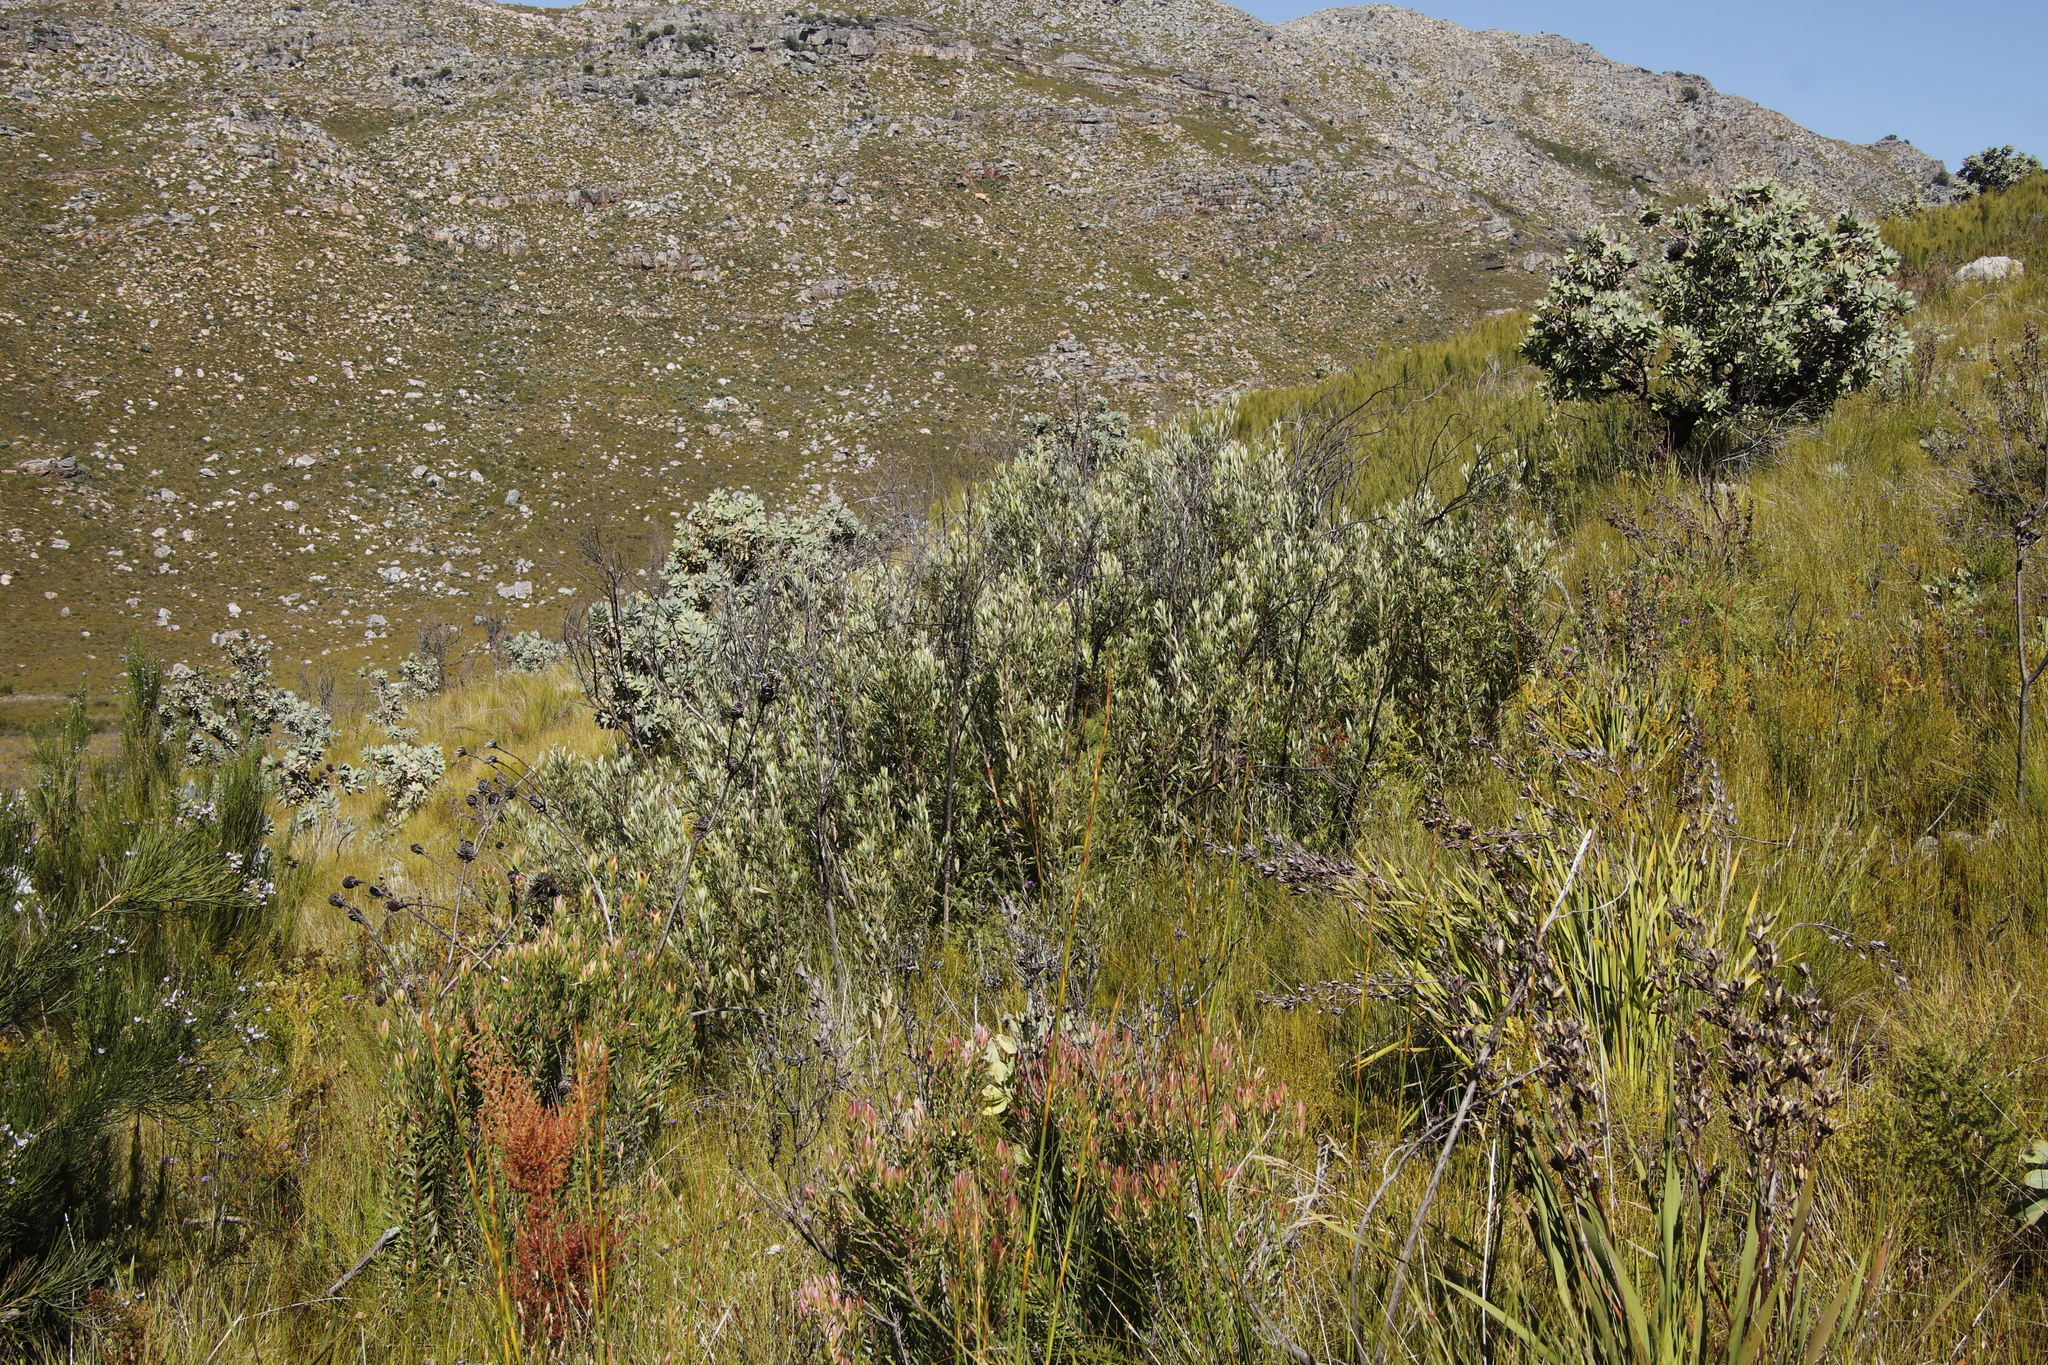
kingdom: Plantae
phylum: Tracheophyta
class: Magnoliopsida
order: Sapindales
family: Anacardiaceae
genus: Searsia
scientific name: Searsia angustifolia
